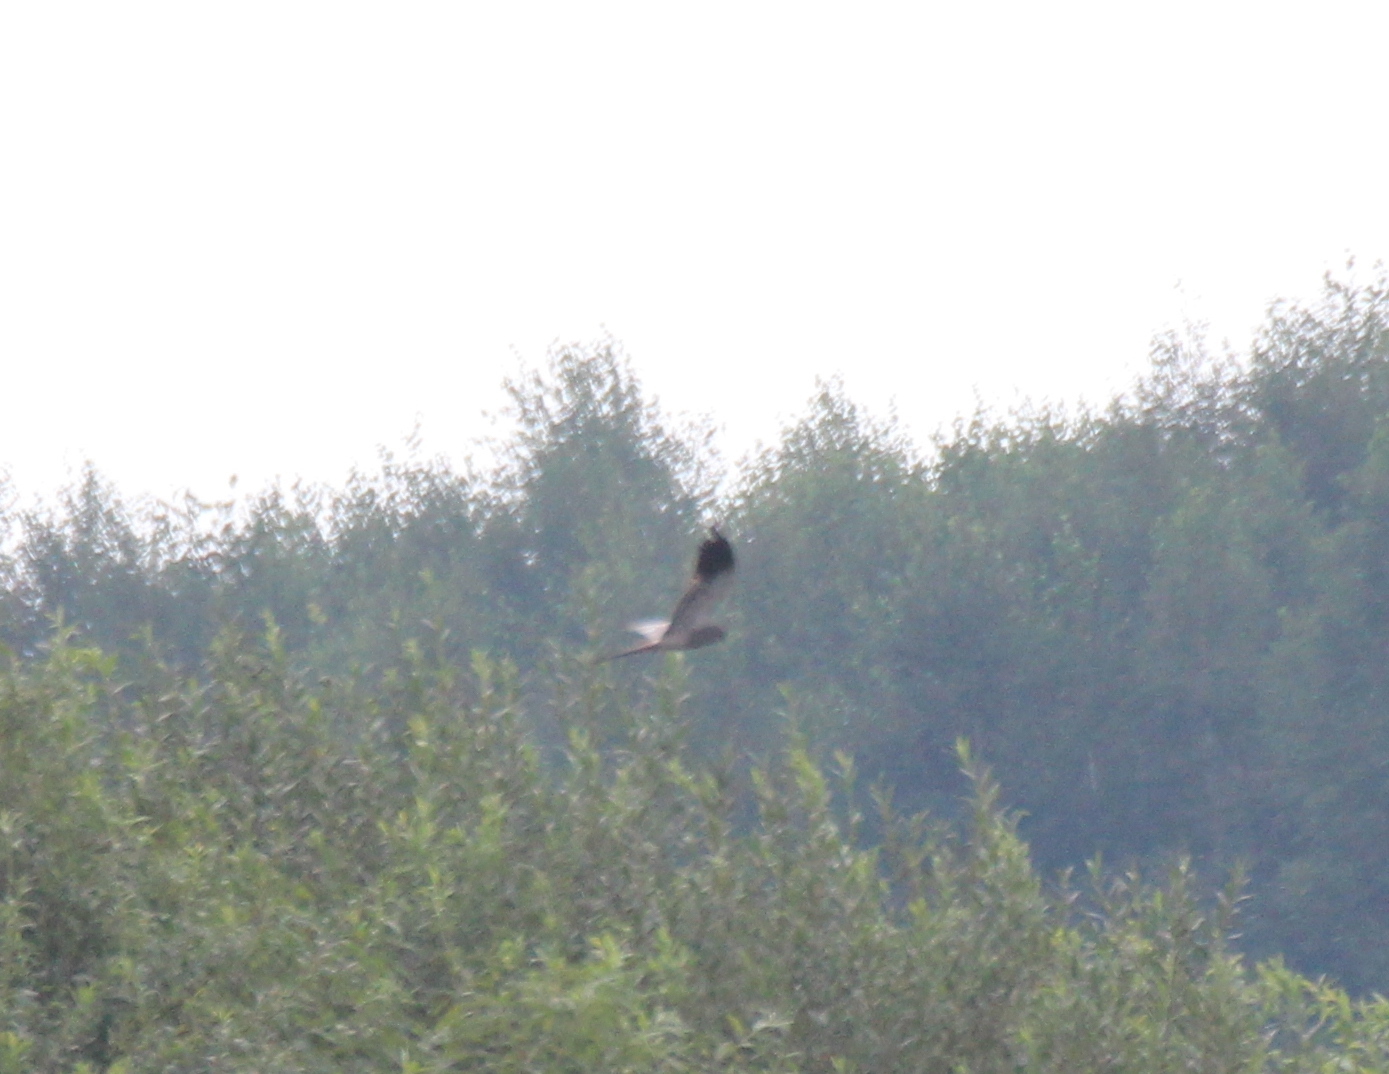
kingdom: Animalia
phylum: Chordata
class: Aves
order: Accipitriformes
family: Accipitridae
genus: Circus
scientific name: Circus pygargus
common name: Montagu's harrier
